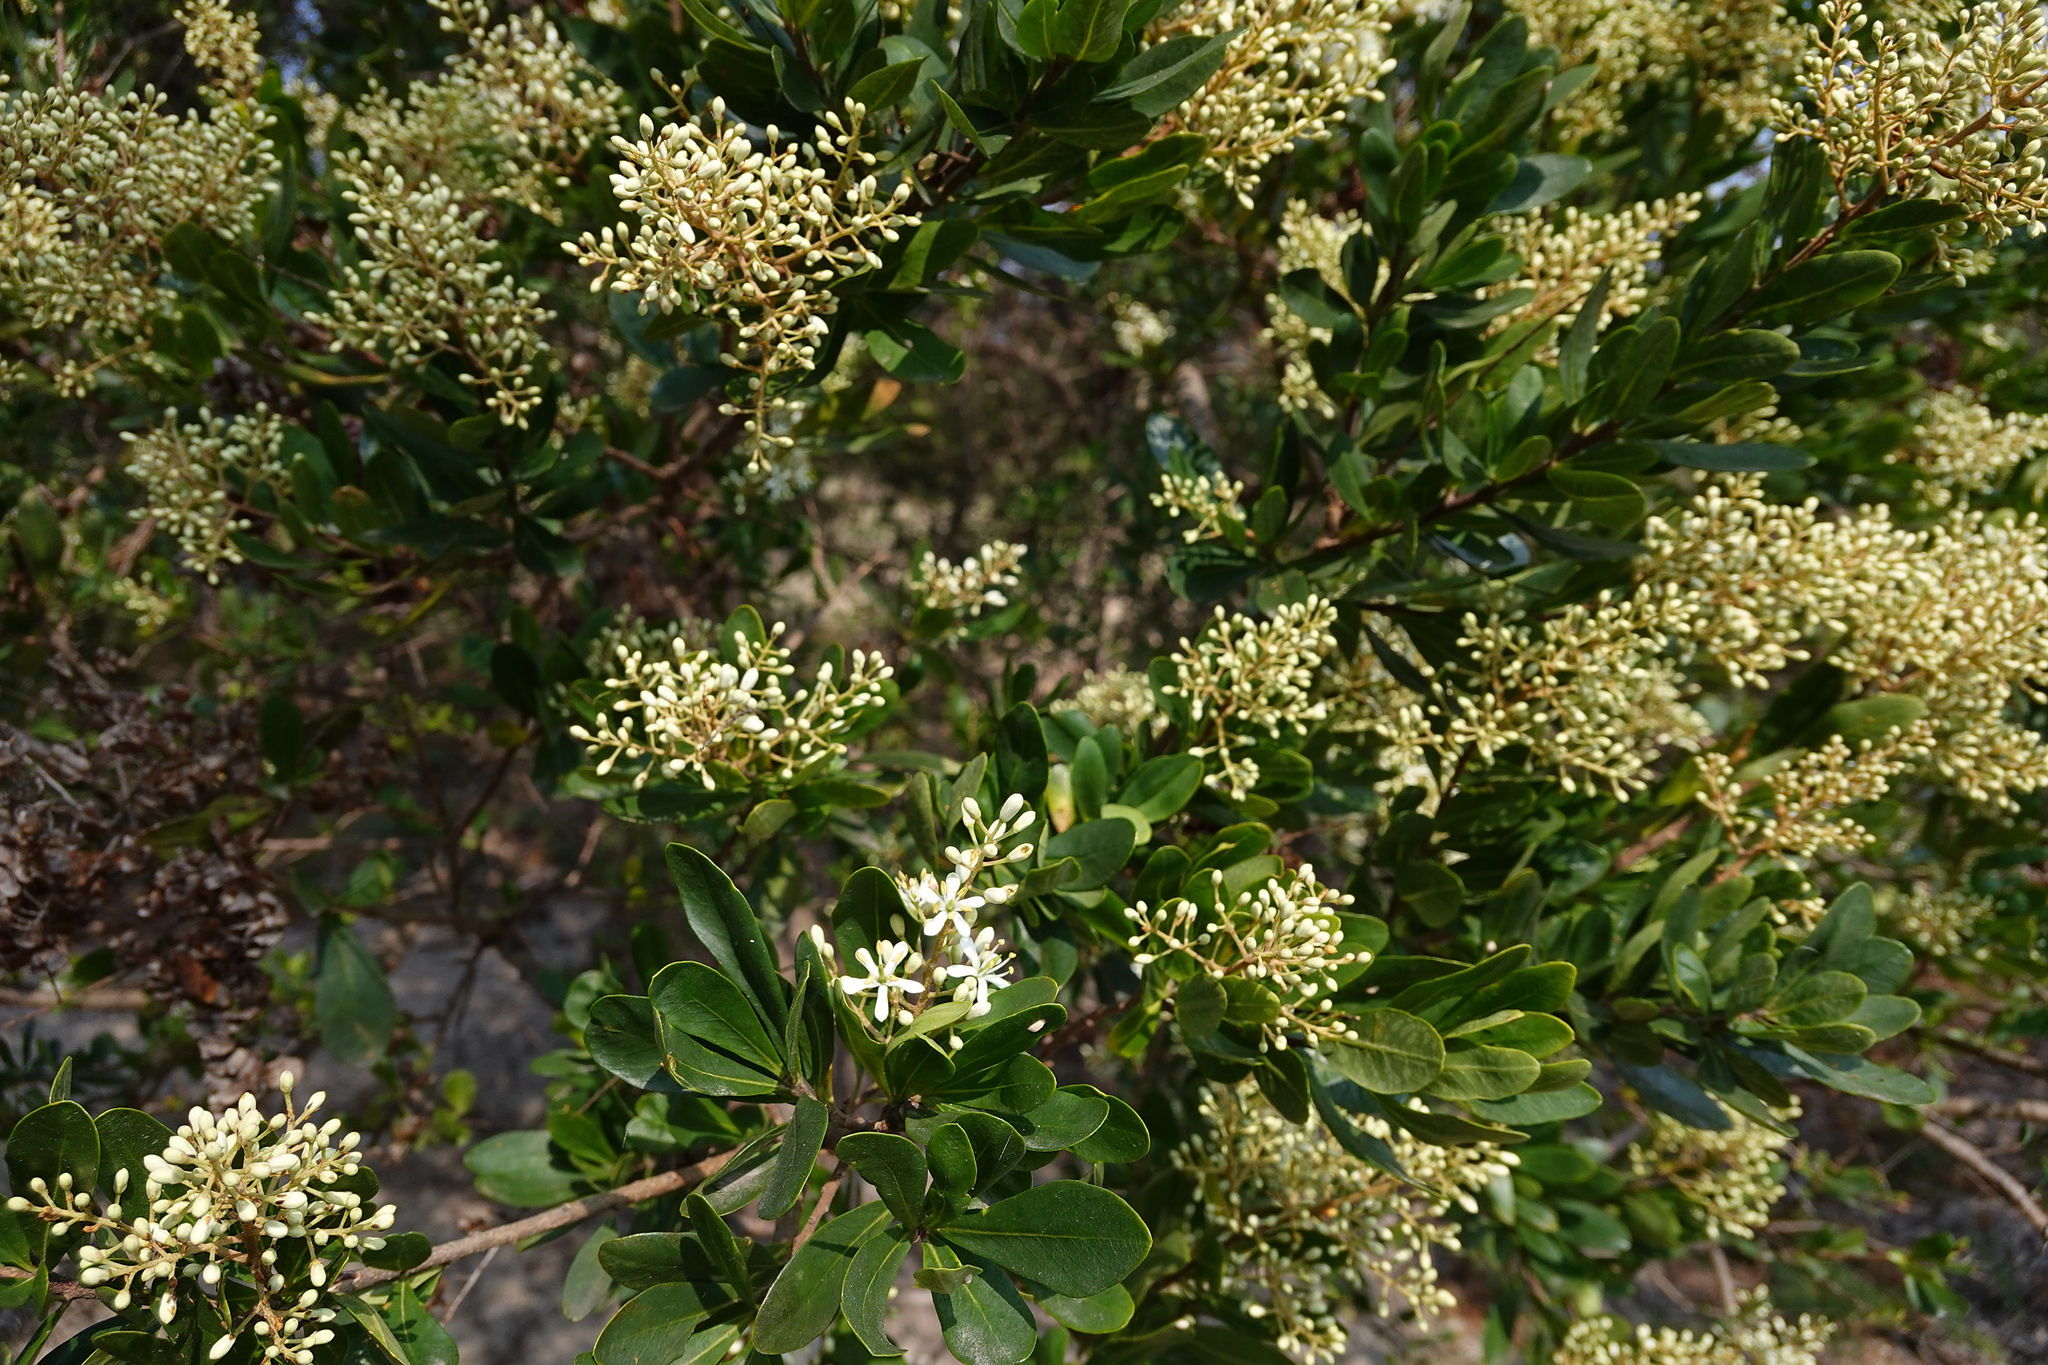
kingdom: Plantae
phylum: Tracheophyta
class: Magnoliopsida
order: Apiales
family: Pittosporaceae
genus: Bursaria
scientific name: Bursaria spinosa
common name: Australian blackthorn
